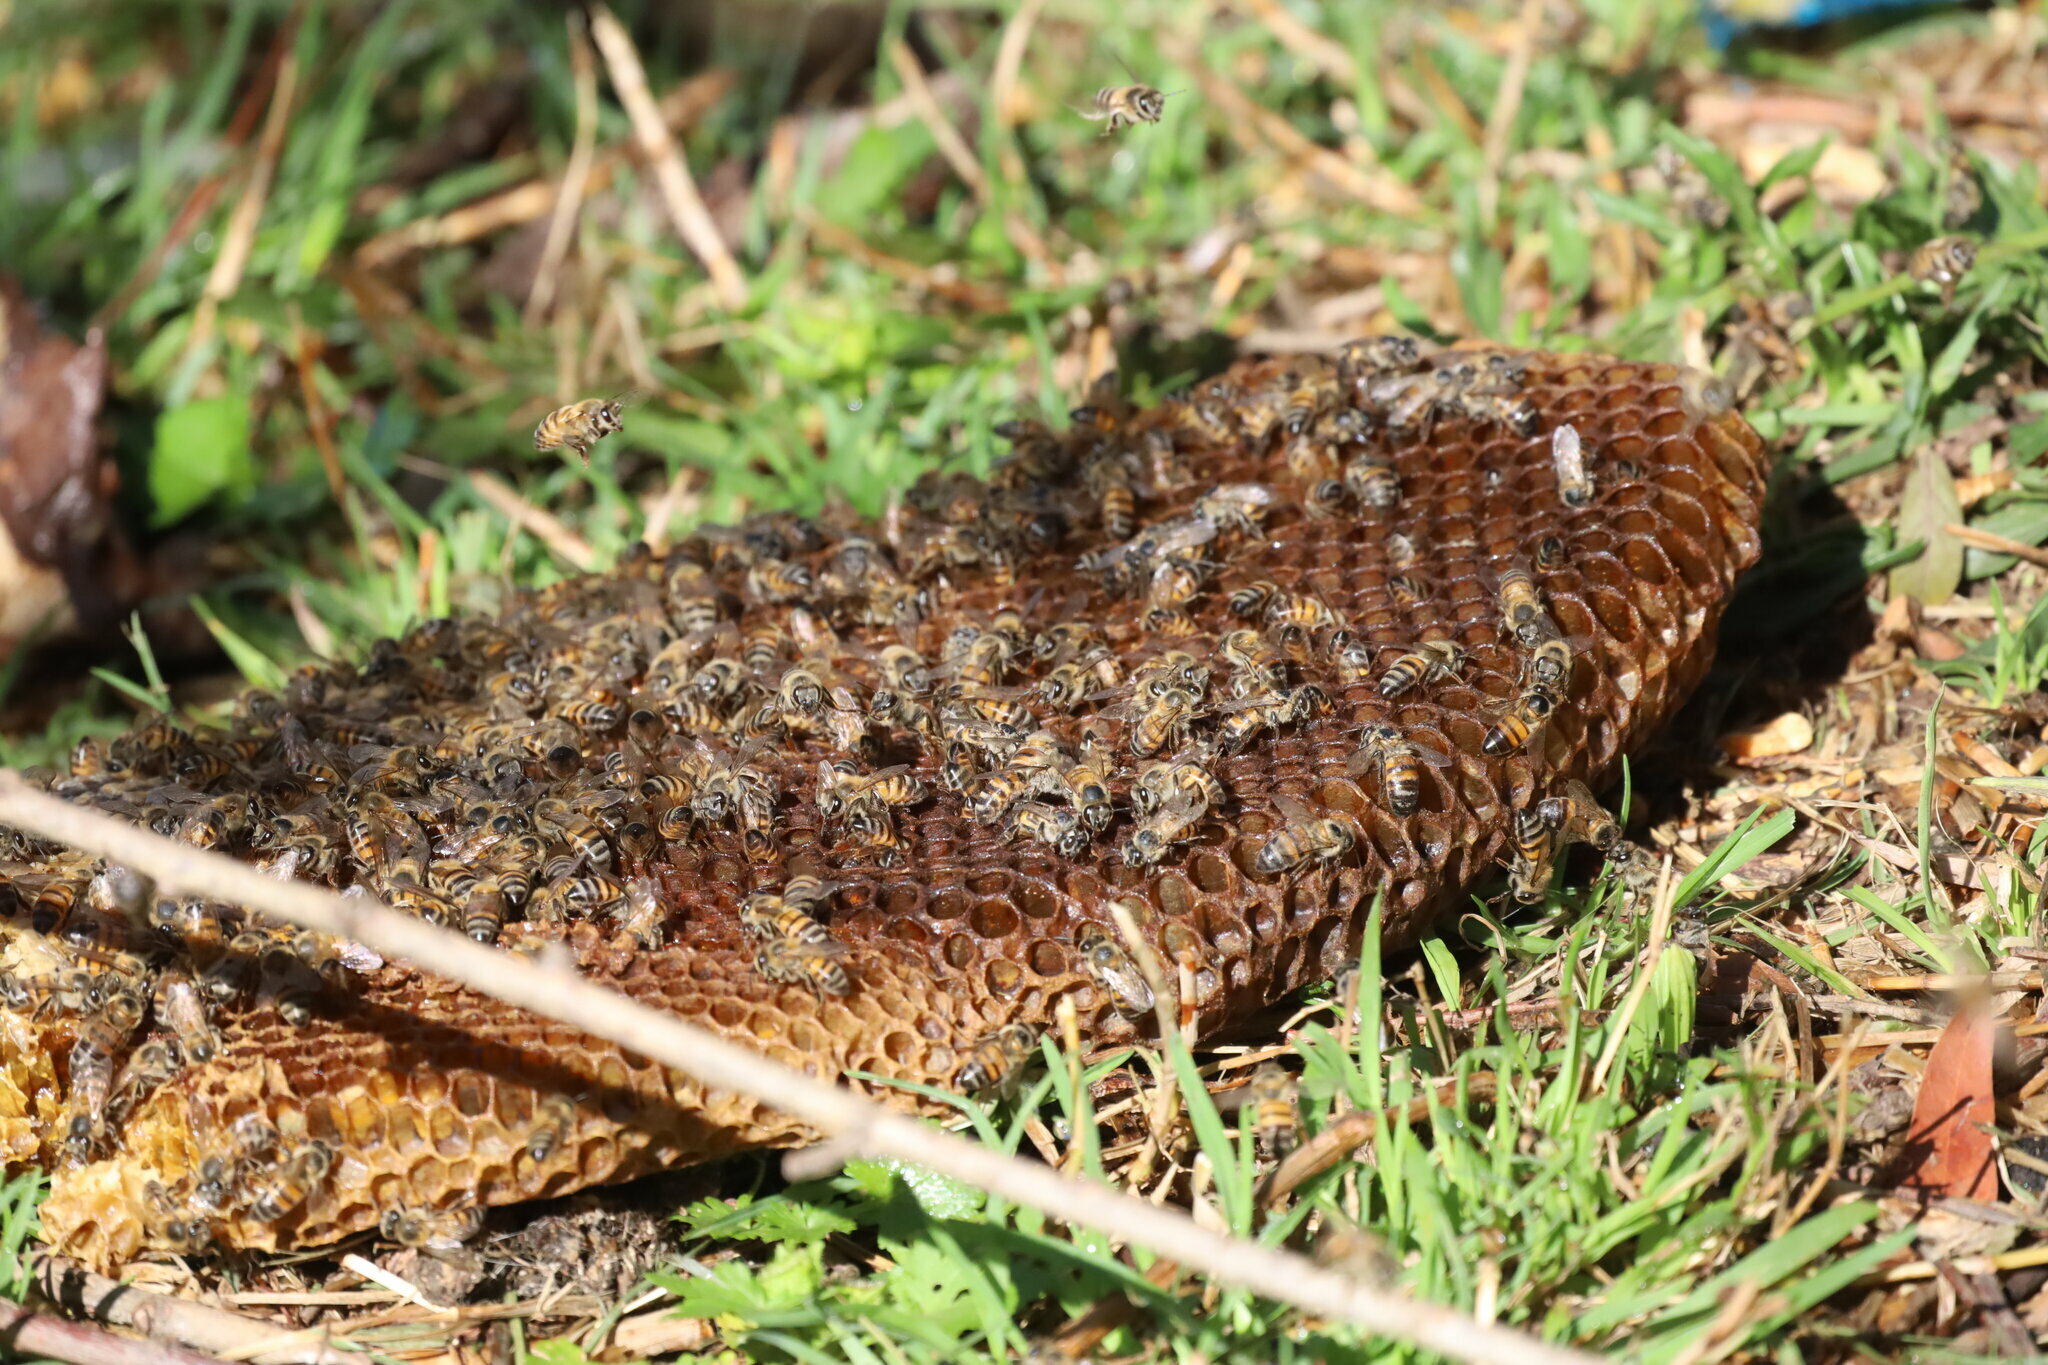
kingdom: Animalia
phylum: Arthropoda
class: Insecta
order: Hymenoptera
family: Apidae
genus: Apis
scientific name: Apis mellifera
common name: Honey bee
